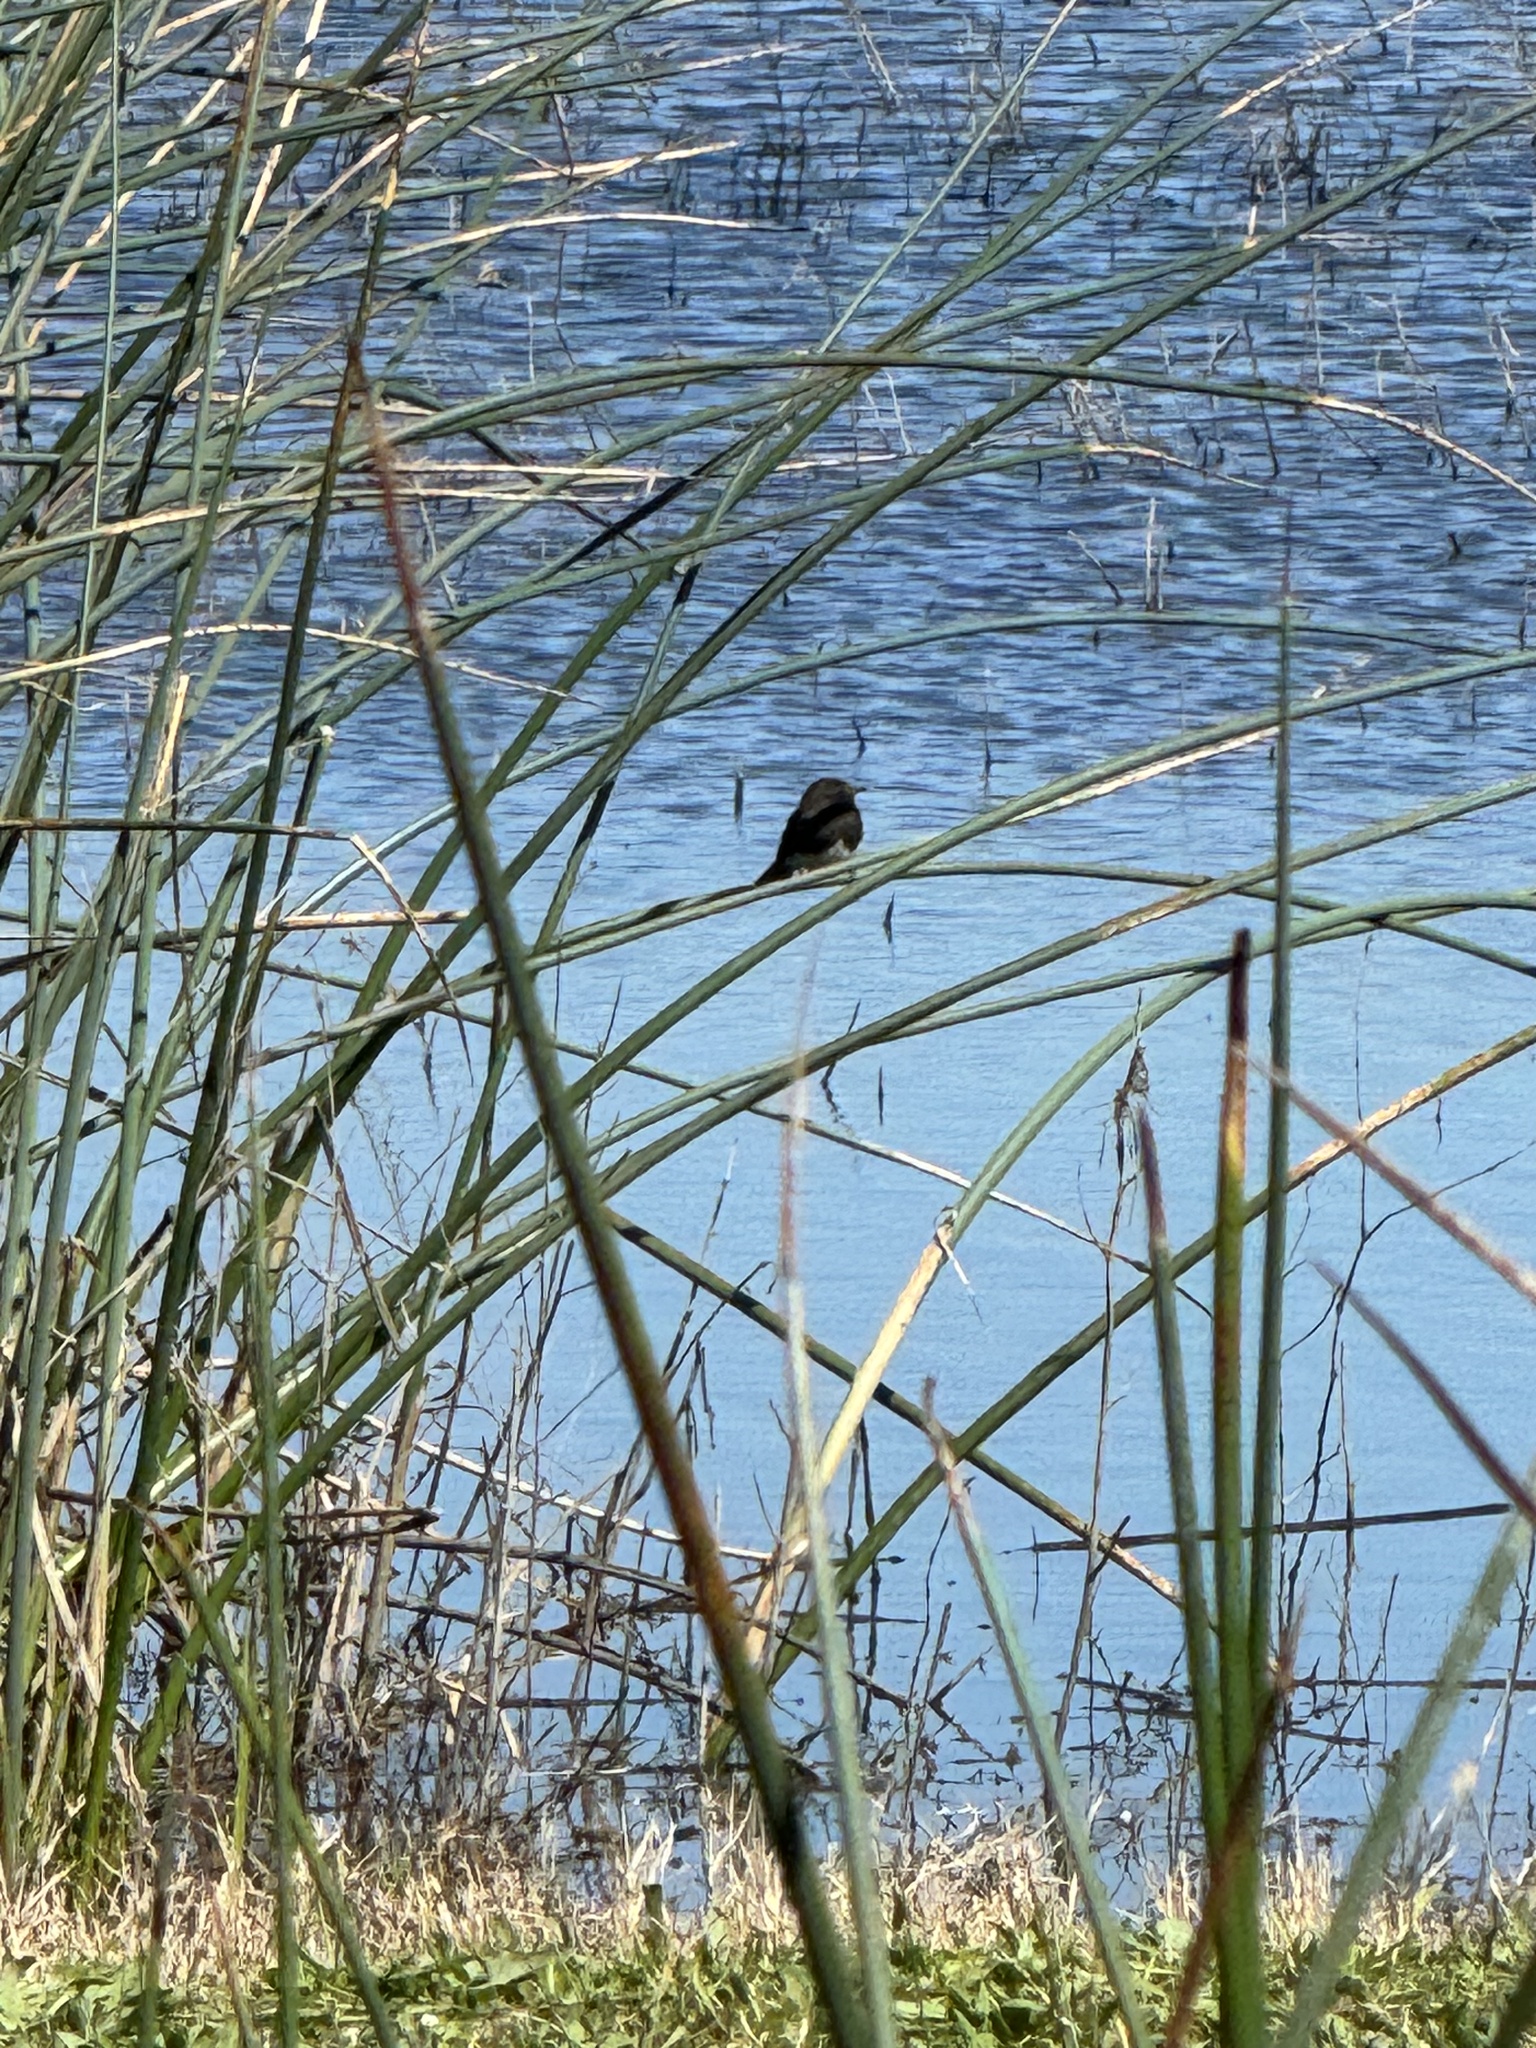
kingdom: Animalia
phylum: Chordata
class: Aves
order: Passeriformes
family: Tyrannidae
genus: Sayornis
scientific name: Sayornis nigricans
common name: Black phoebe
